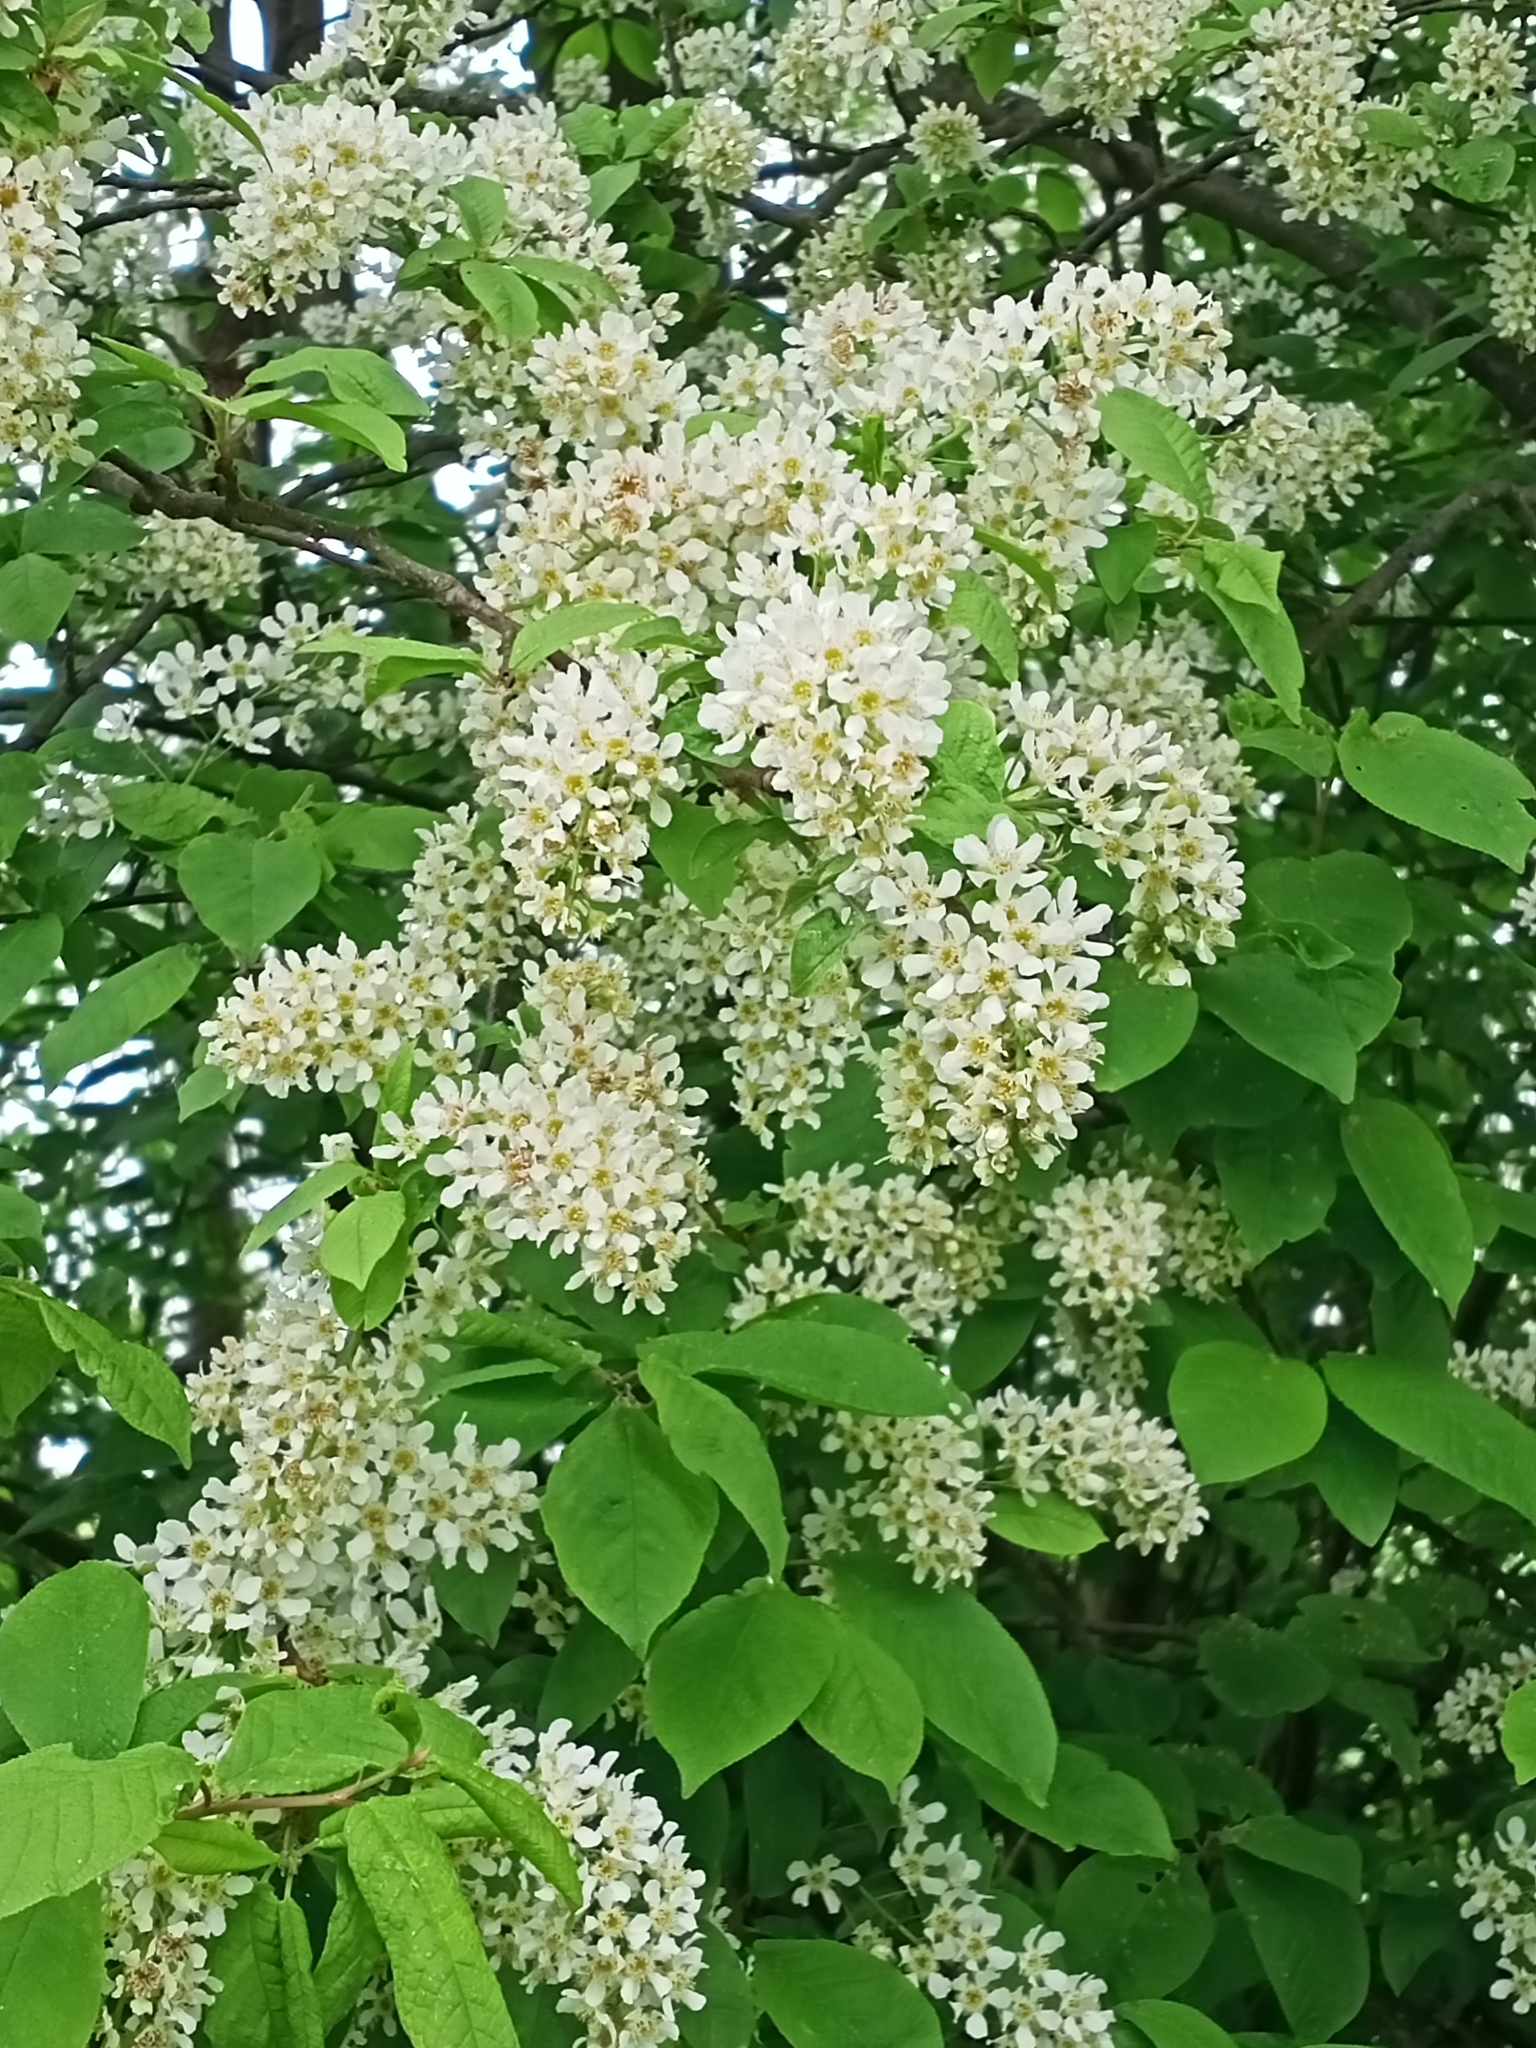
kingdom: Plantae
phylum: Tracheophyta
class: Magnoliopsida
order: Rosales
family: Rosaceae
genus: Prunus
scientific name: Prunus padus
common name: Bird cherry
